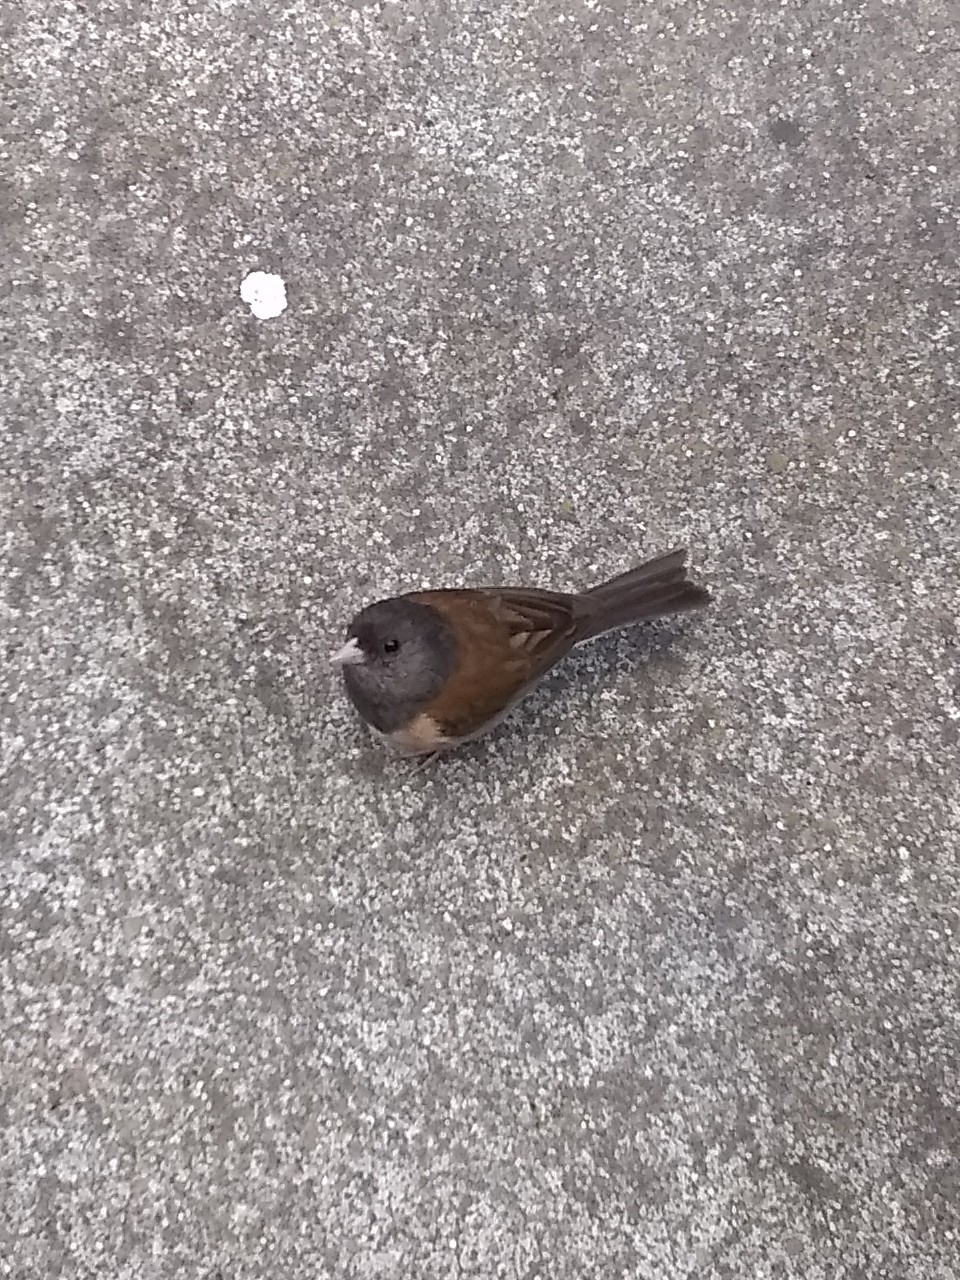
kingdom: Animalia
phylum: Chordata
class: Aves
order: Passeriformes
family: Passerellidae
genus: Junco
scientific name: Junco hyemalis
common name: Dark-eyed junco
